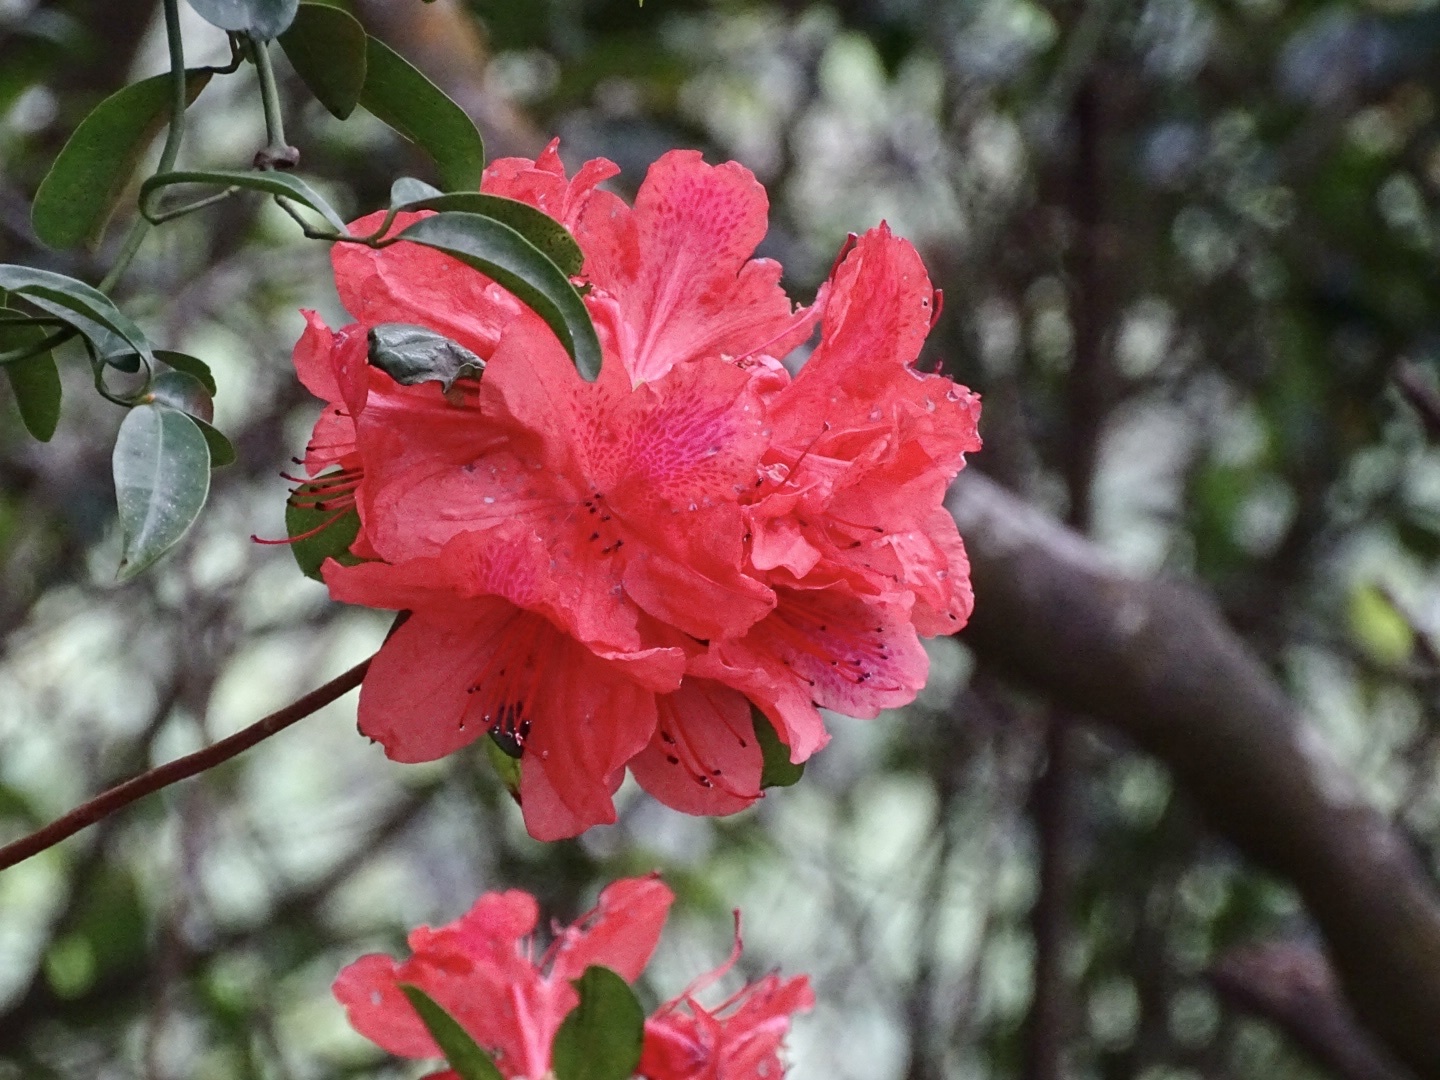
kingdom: Plantae
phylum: Tracheophyta
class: Magnoliopsida
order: Ericales
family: Ericaceae
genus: Rhododendron
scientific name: Rhododendron simsii
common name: Rhododendron
